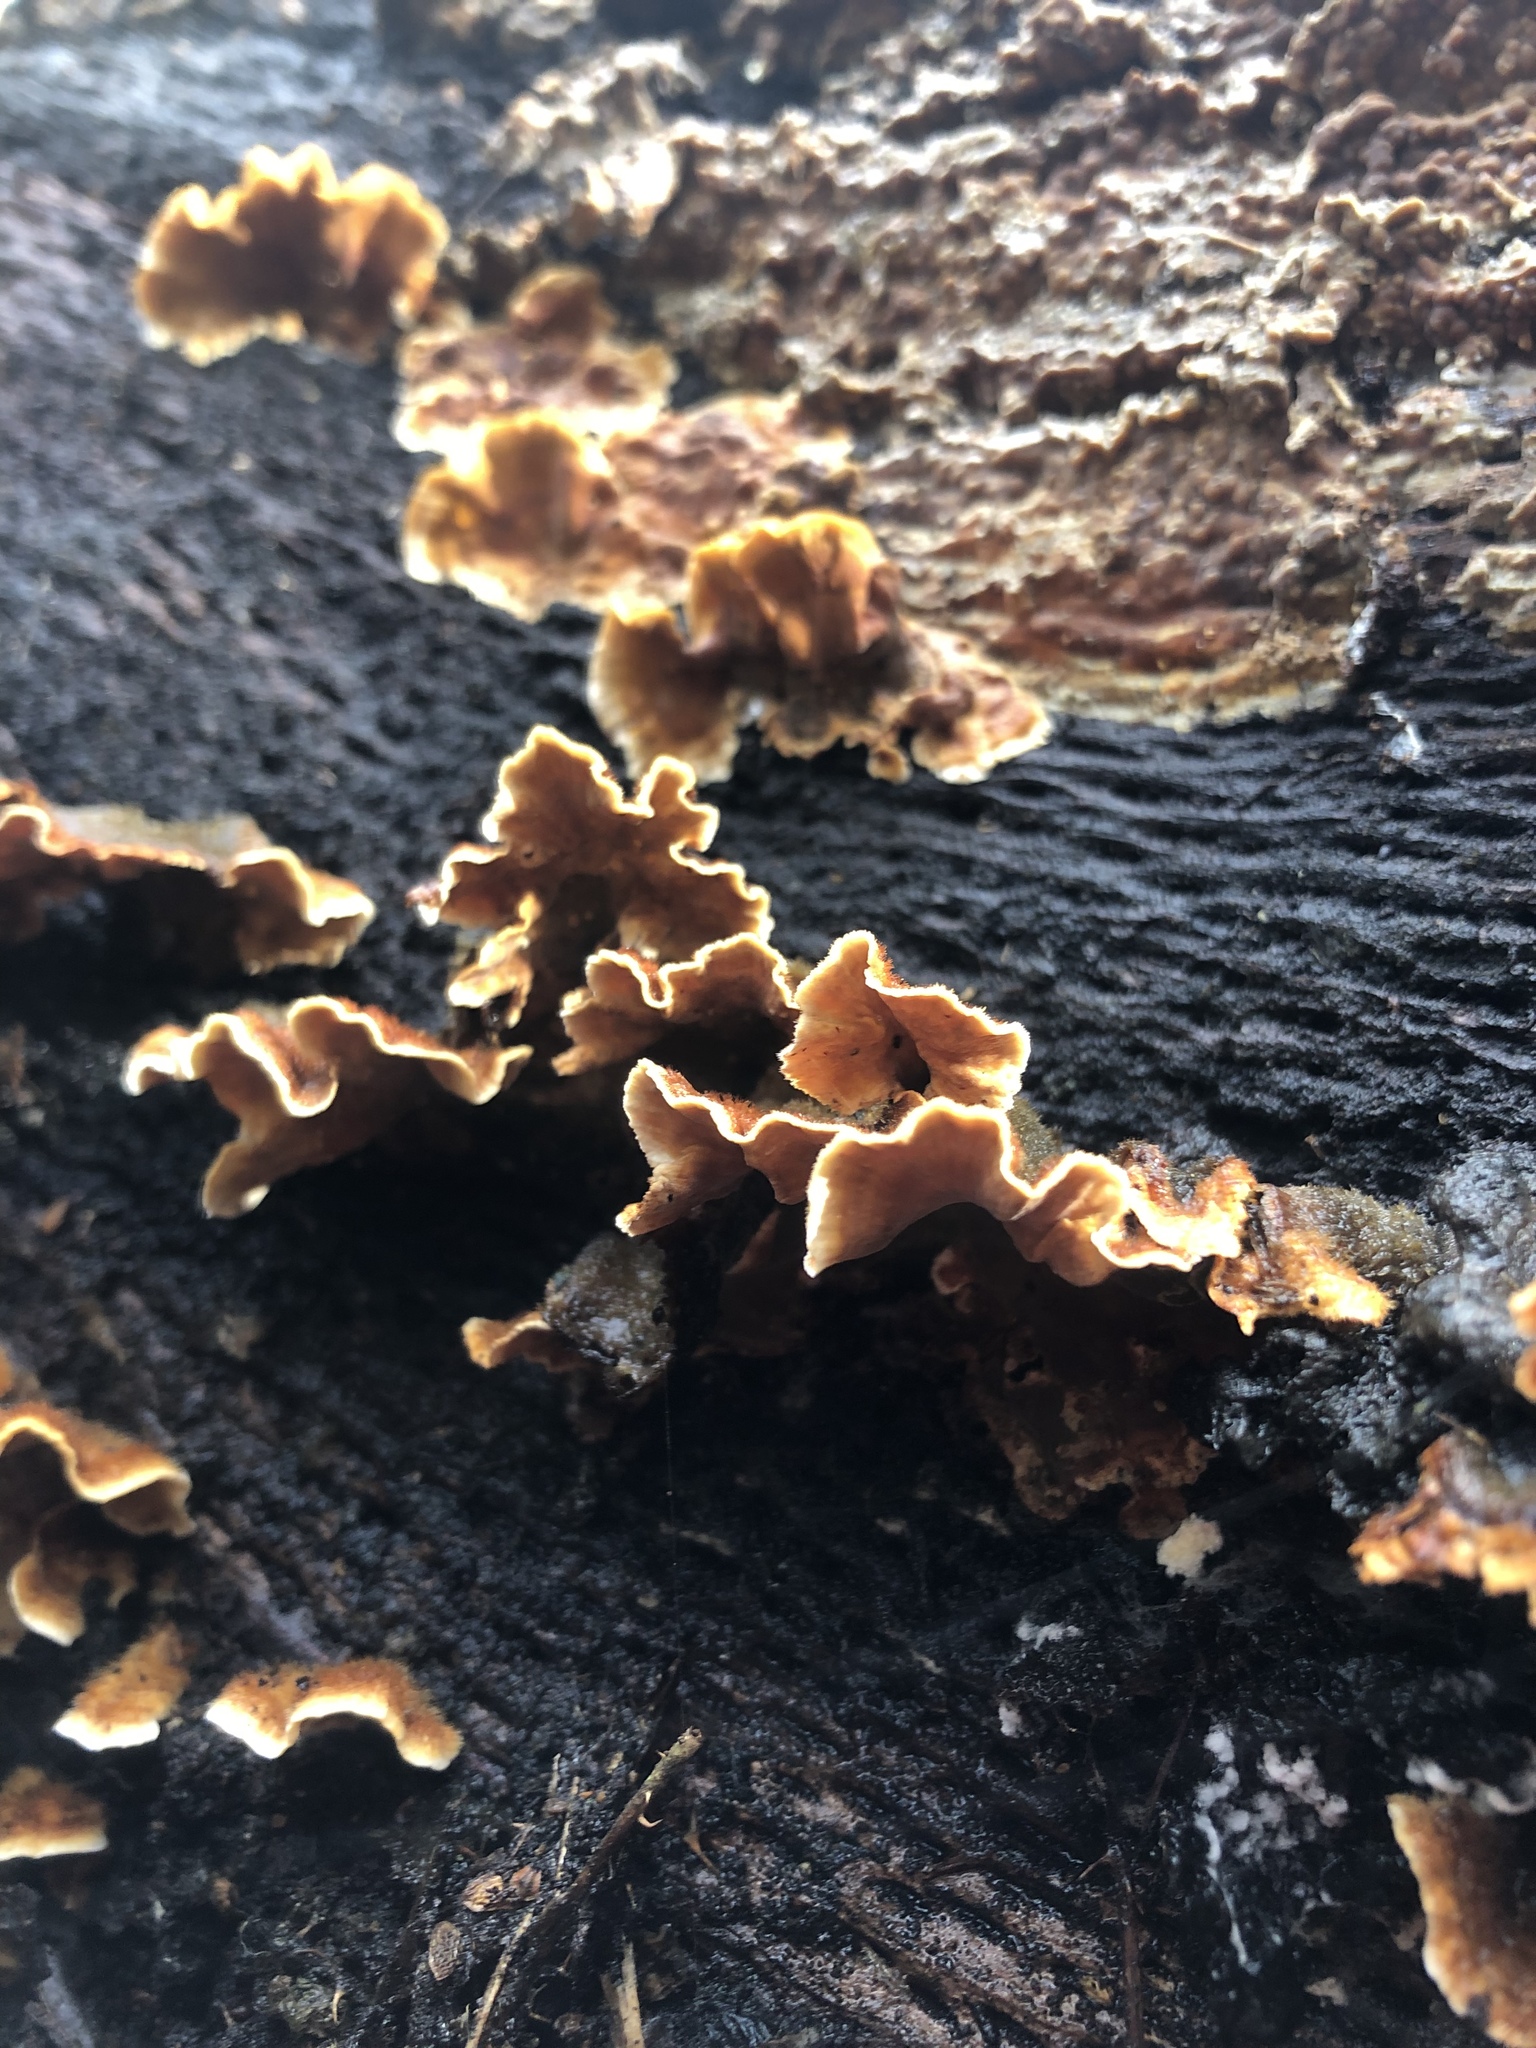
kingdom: Fungi
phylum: Basidiomycota
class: Agaricomycetes
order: Russulales
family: Stereaceae
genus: Stereum
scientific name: Stereum hirsutum
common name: Hairy curtain crust
